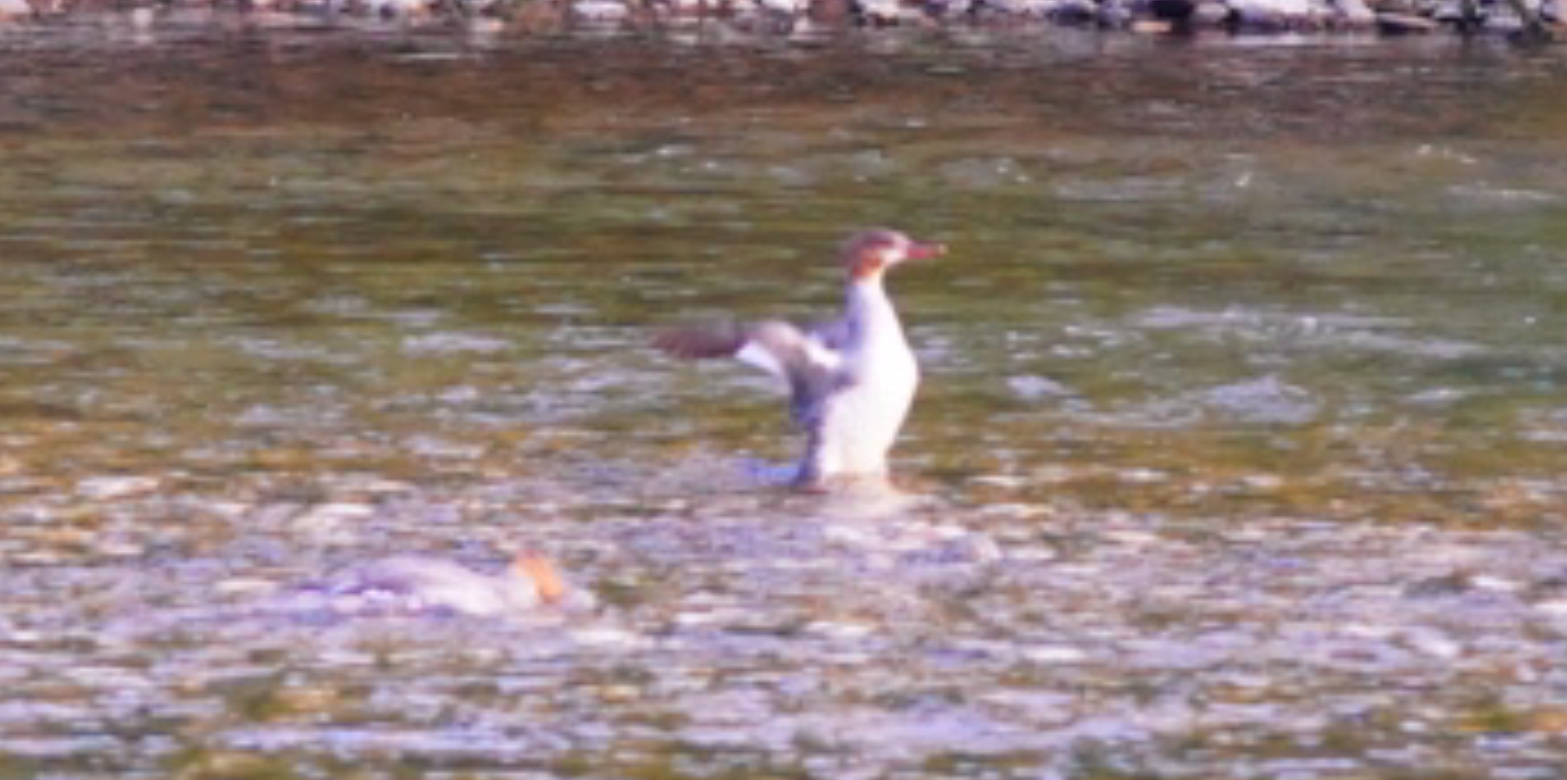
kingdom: Animalia
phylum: Chordata
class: Aves
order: Anseriformes
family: Anatidae
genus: Mergus
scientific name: Mergus merganser
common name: Common merganser
